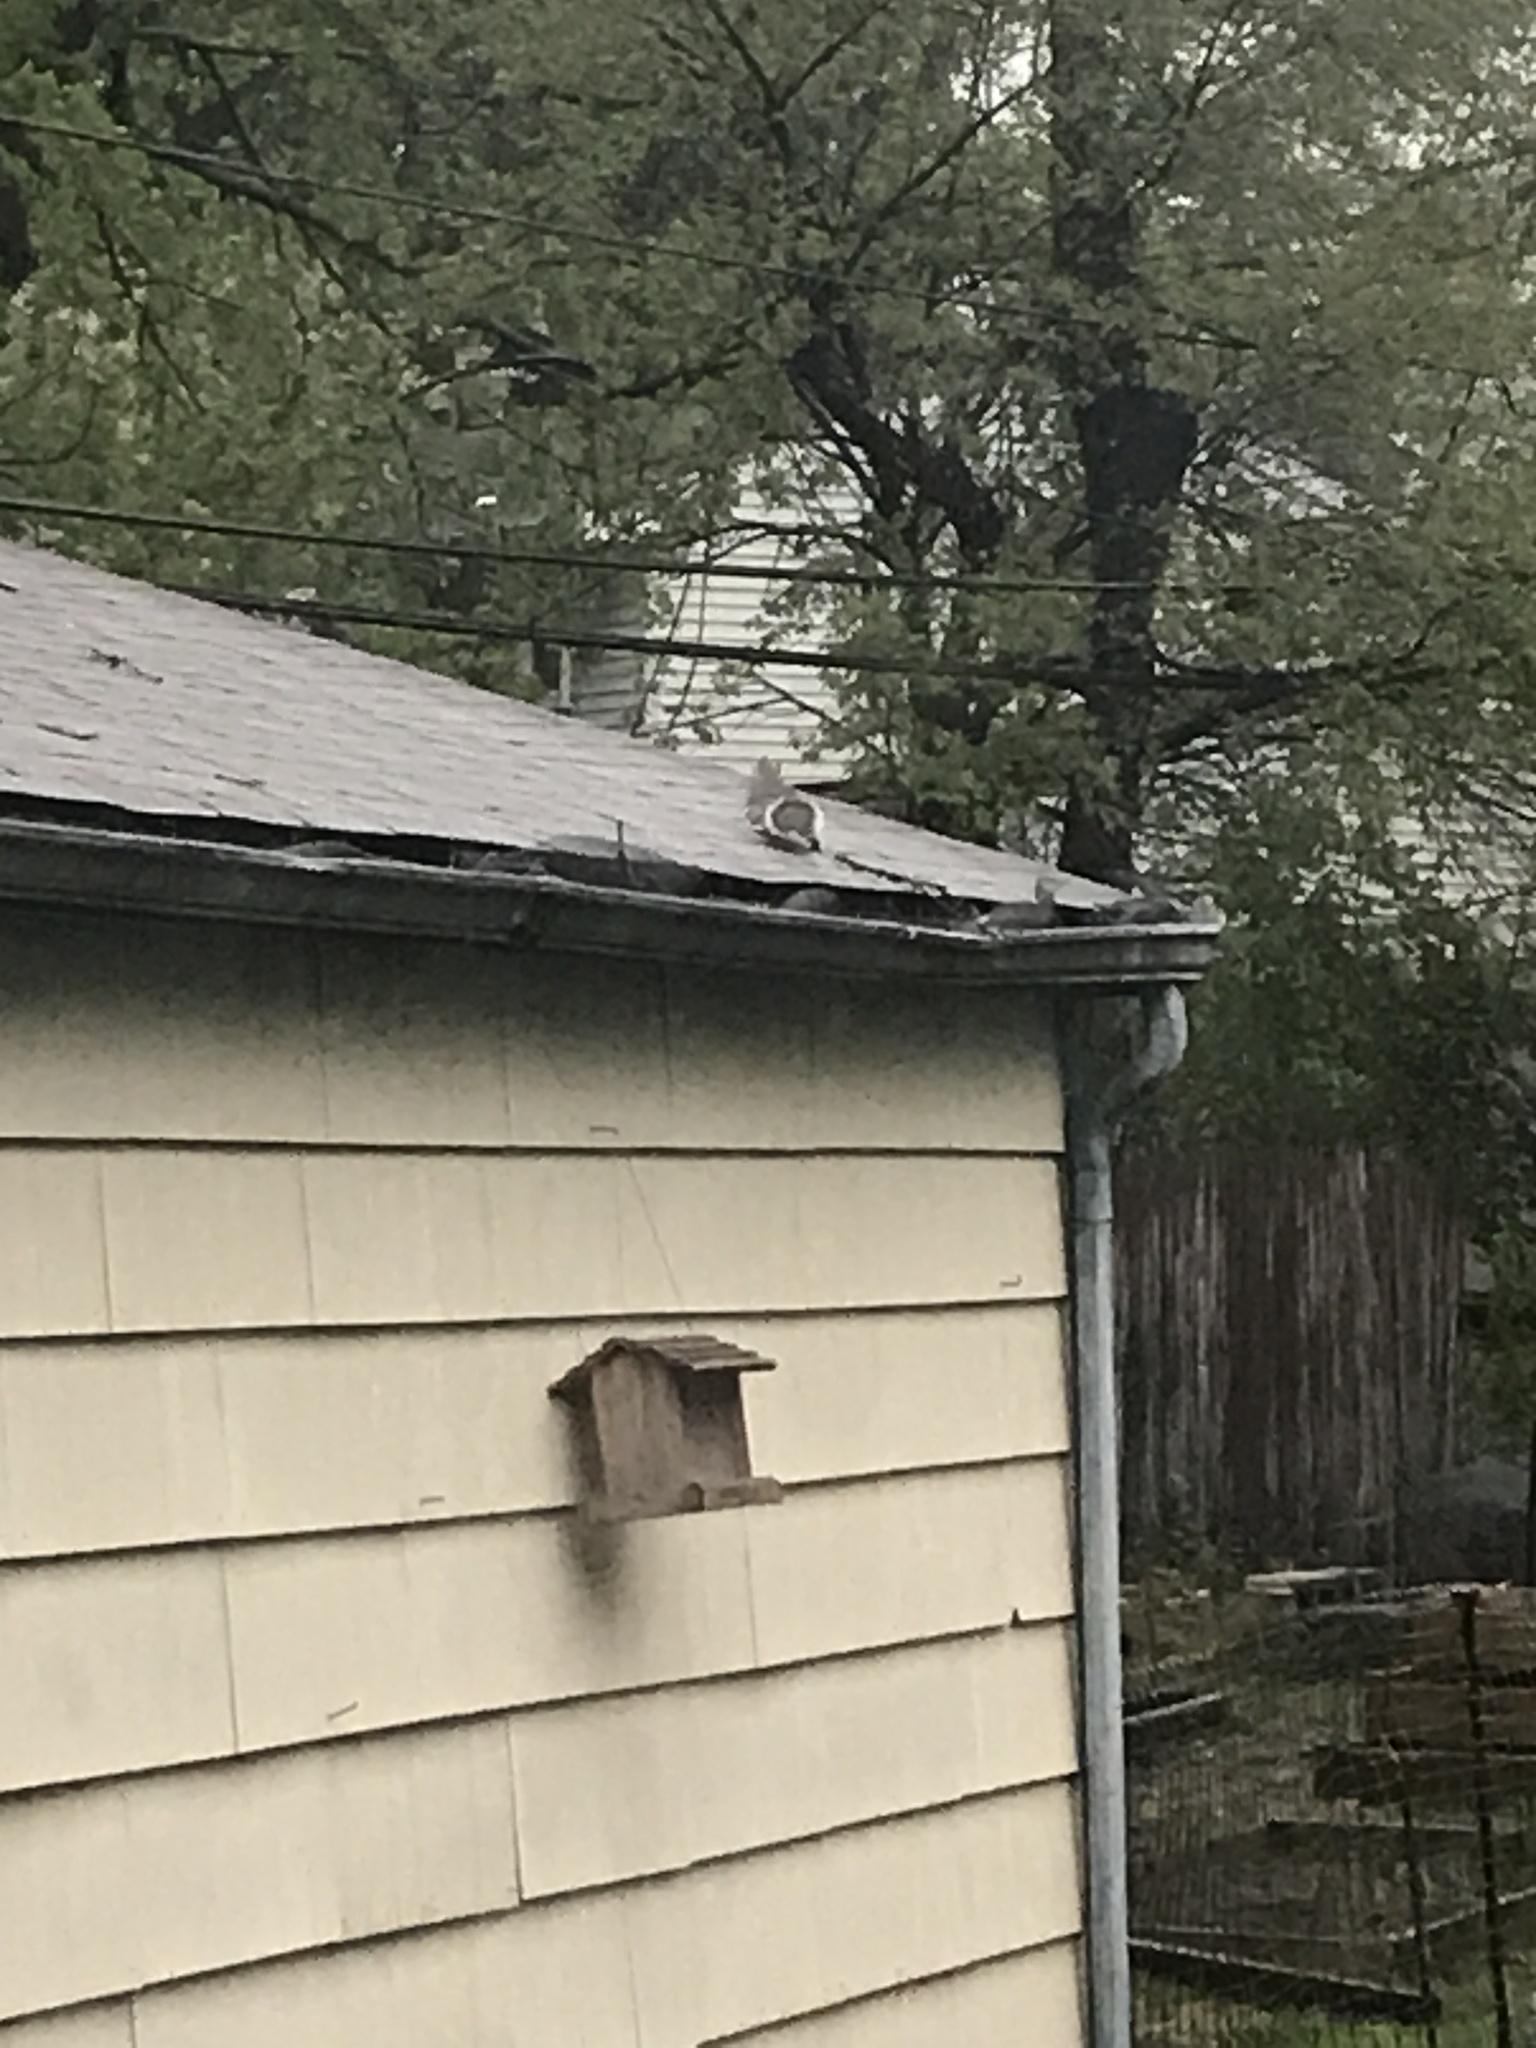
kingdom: Animalia
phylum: Chordata
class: Mammalia
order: Rodentia
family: Sciuridae
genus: Sciurus
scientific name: Sciurus carolinensis
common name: Eastern gray squirrel
